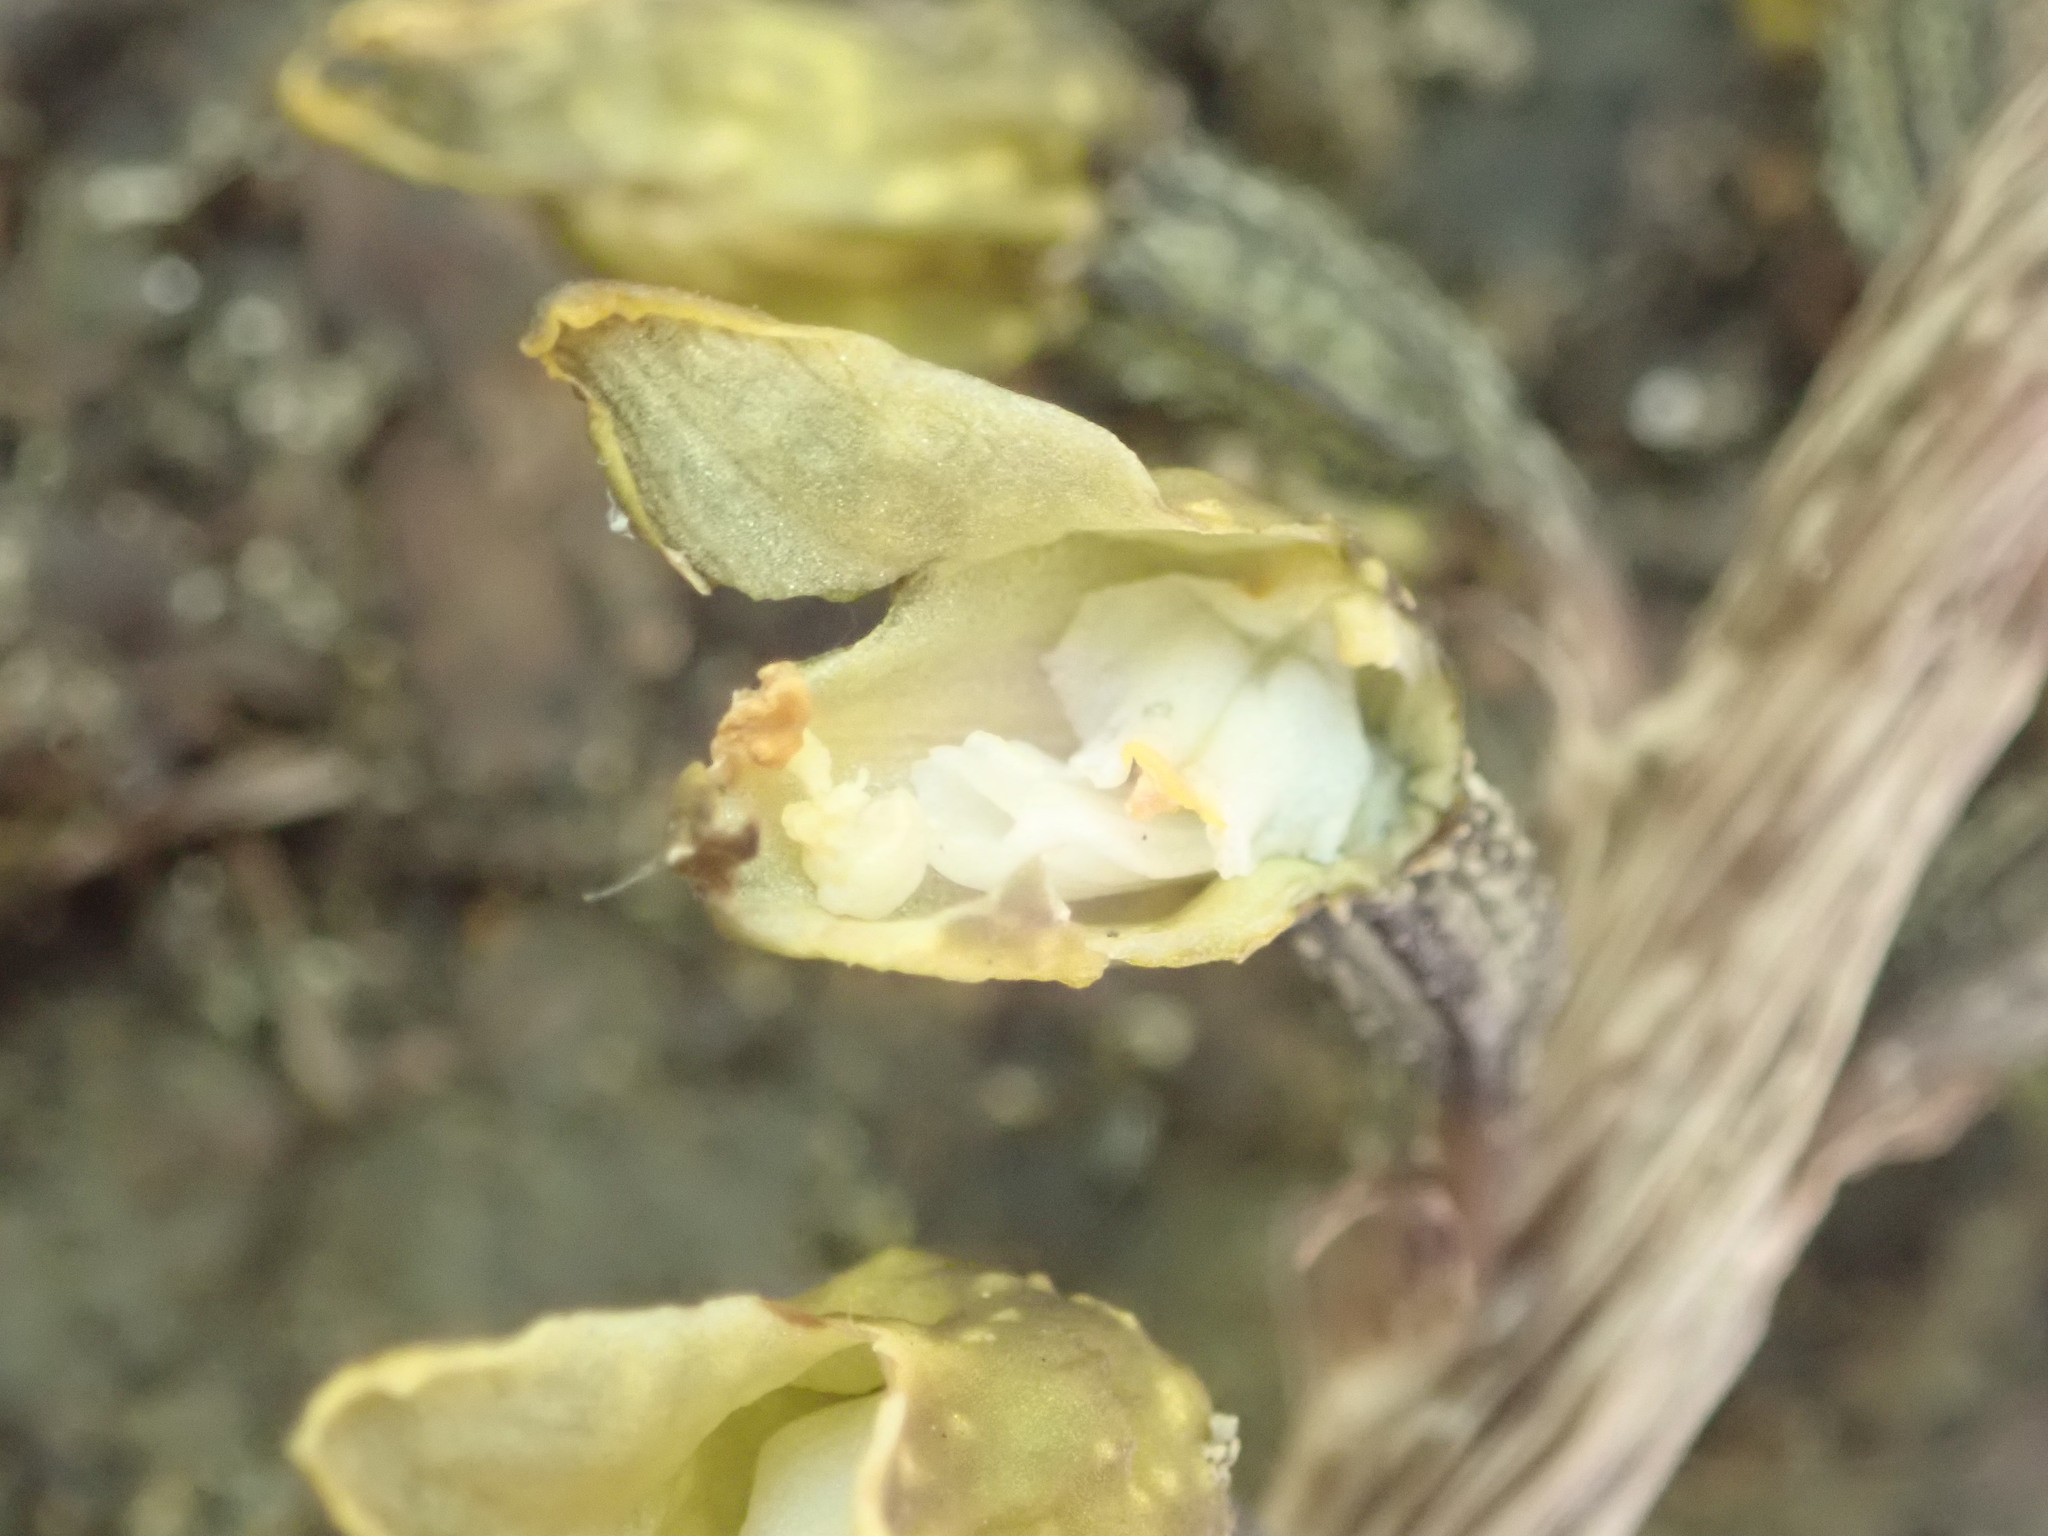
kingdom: Plantae
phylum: Tracheophyta
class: Liliopsida
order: Asparagales
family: Orchidaceae
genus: Gastrodia
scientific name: Gastrodia molloyi
